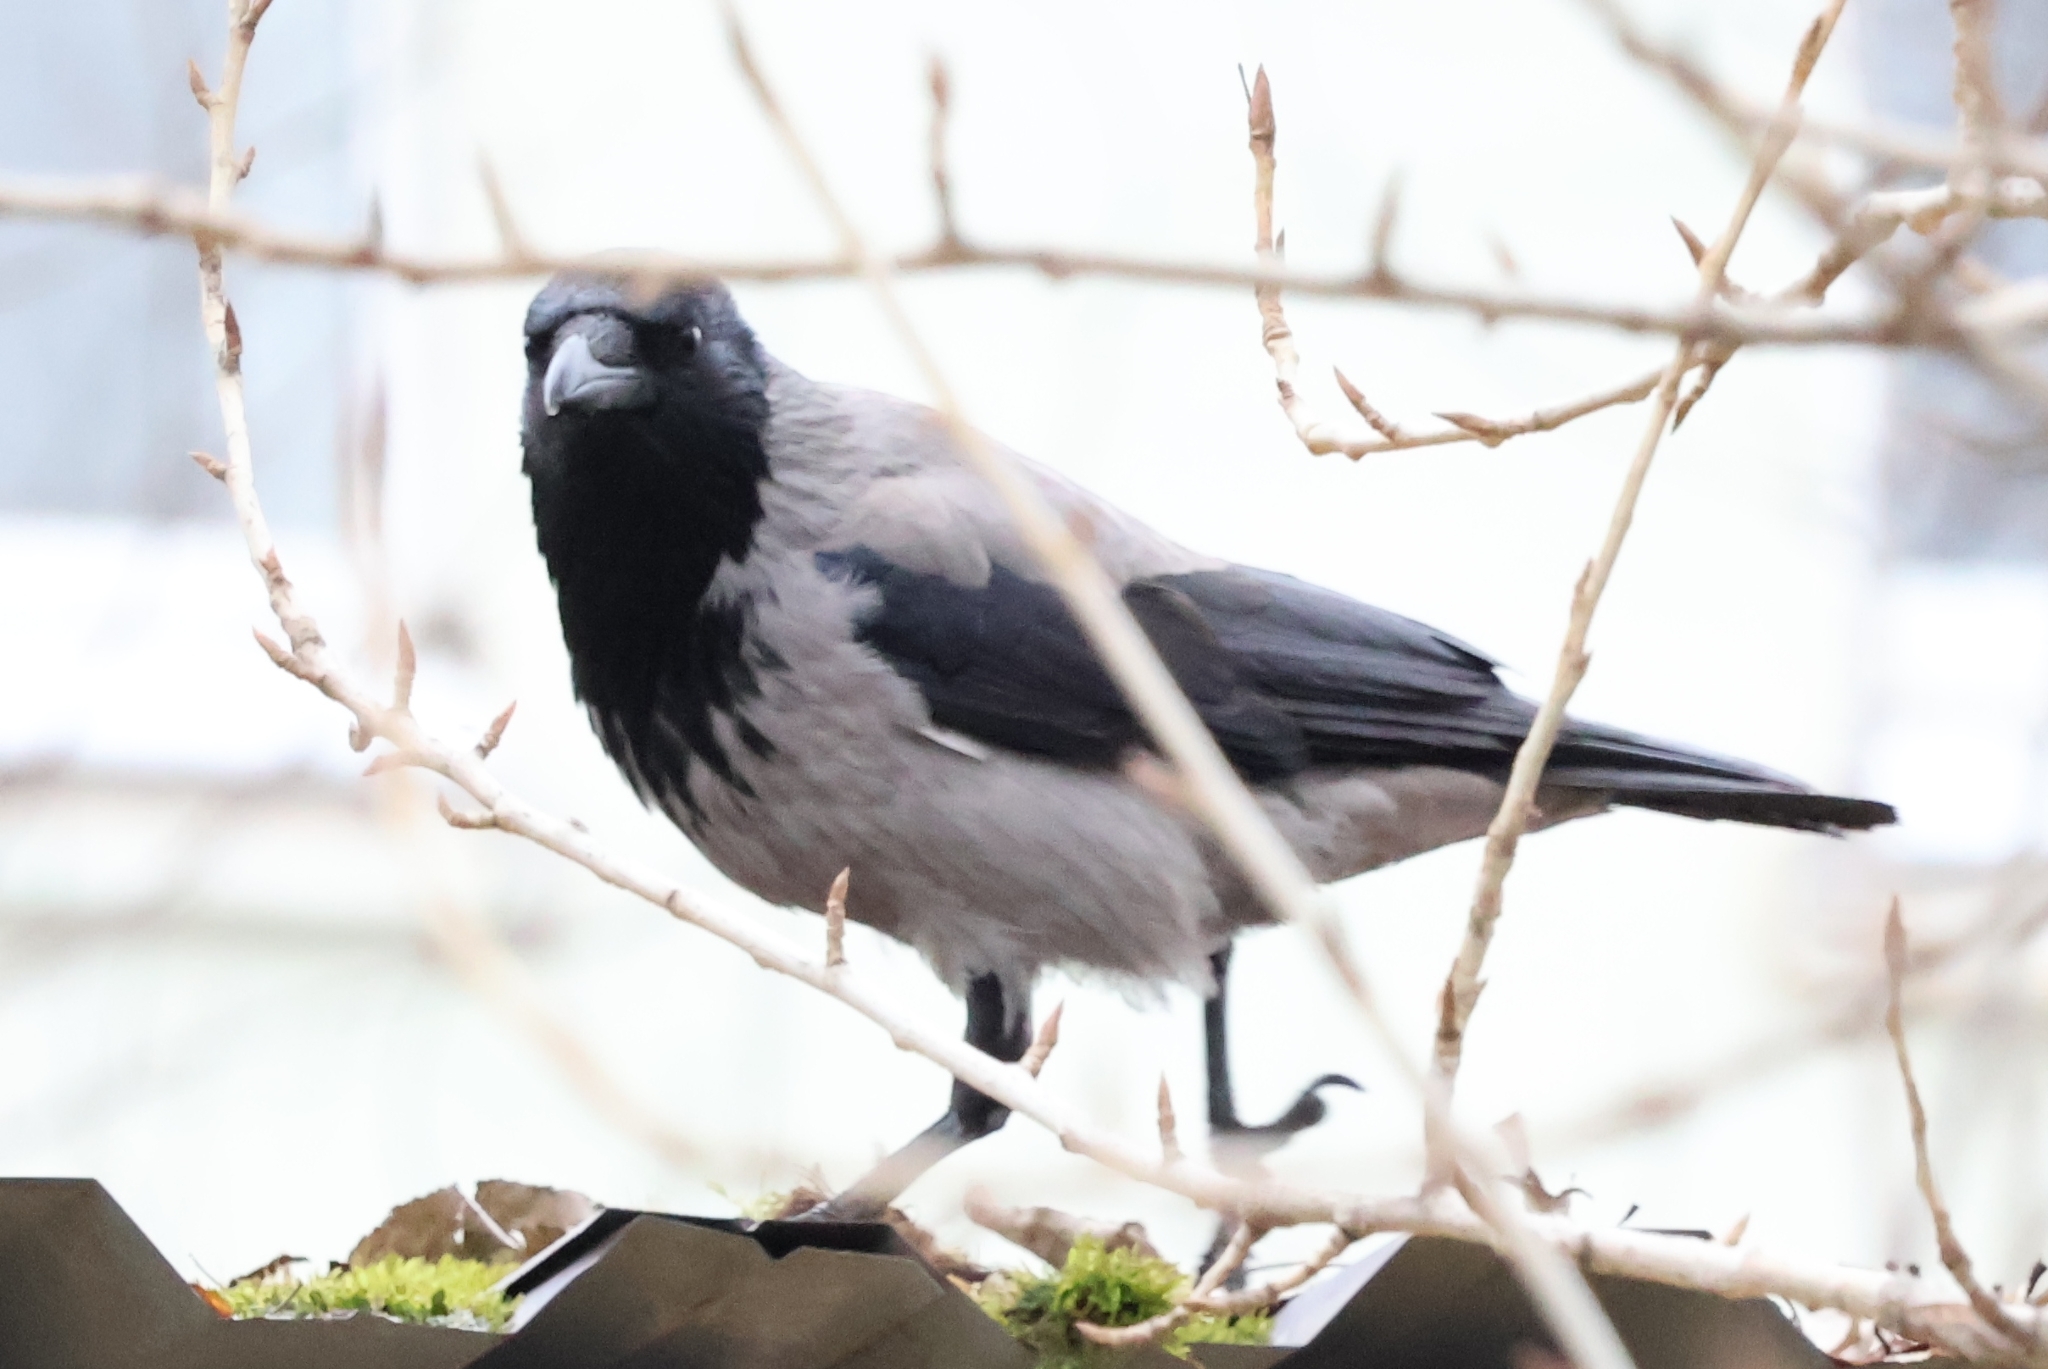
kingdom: Animalia
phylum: Chordata
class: Aves
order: Passeriformes
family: Corvidae
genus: Corvus
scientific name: Corvus cornix
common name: Hooded crow
